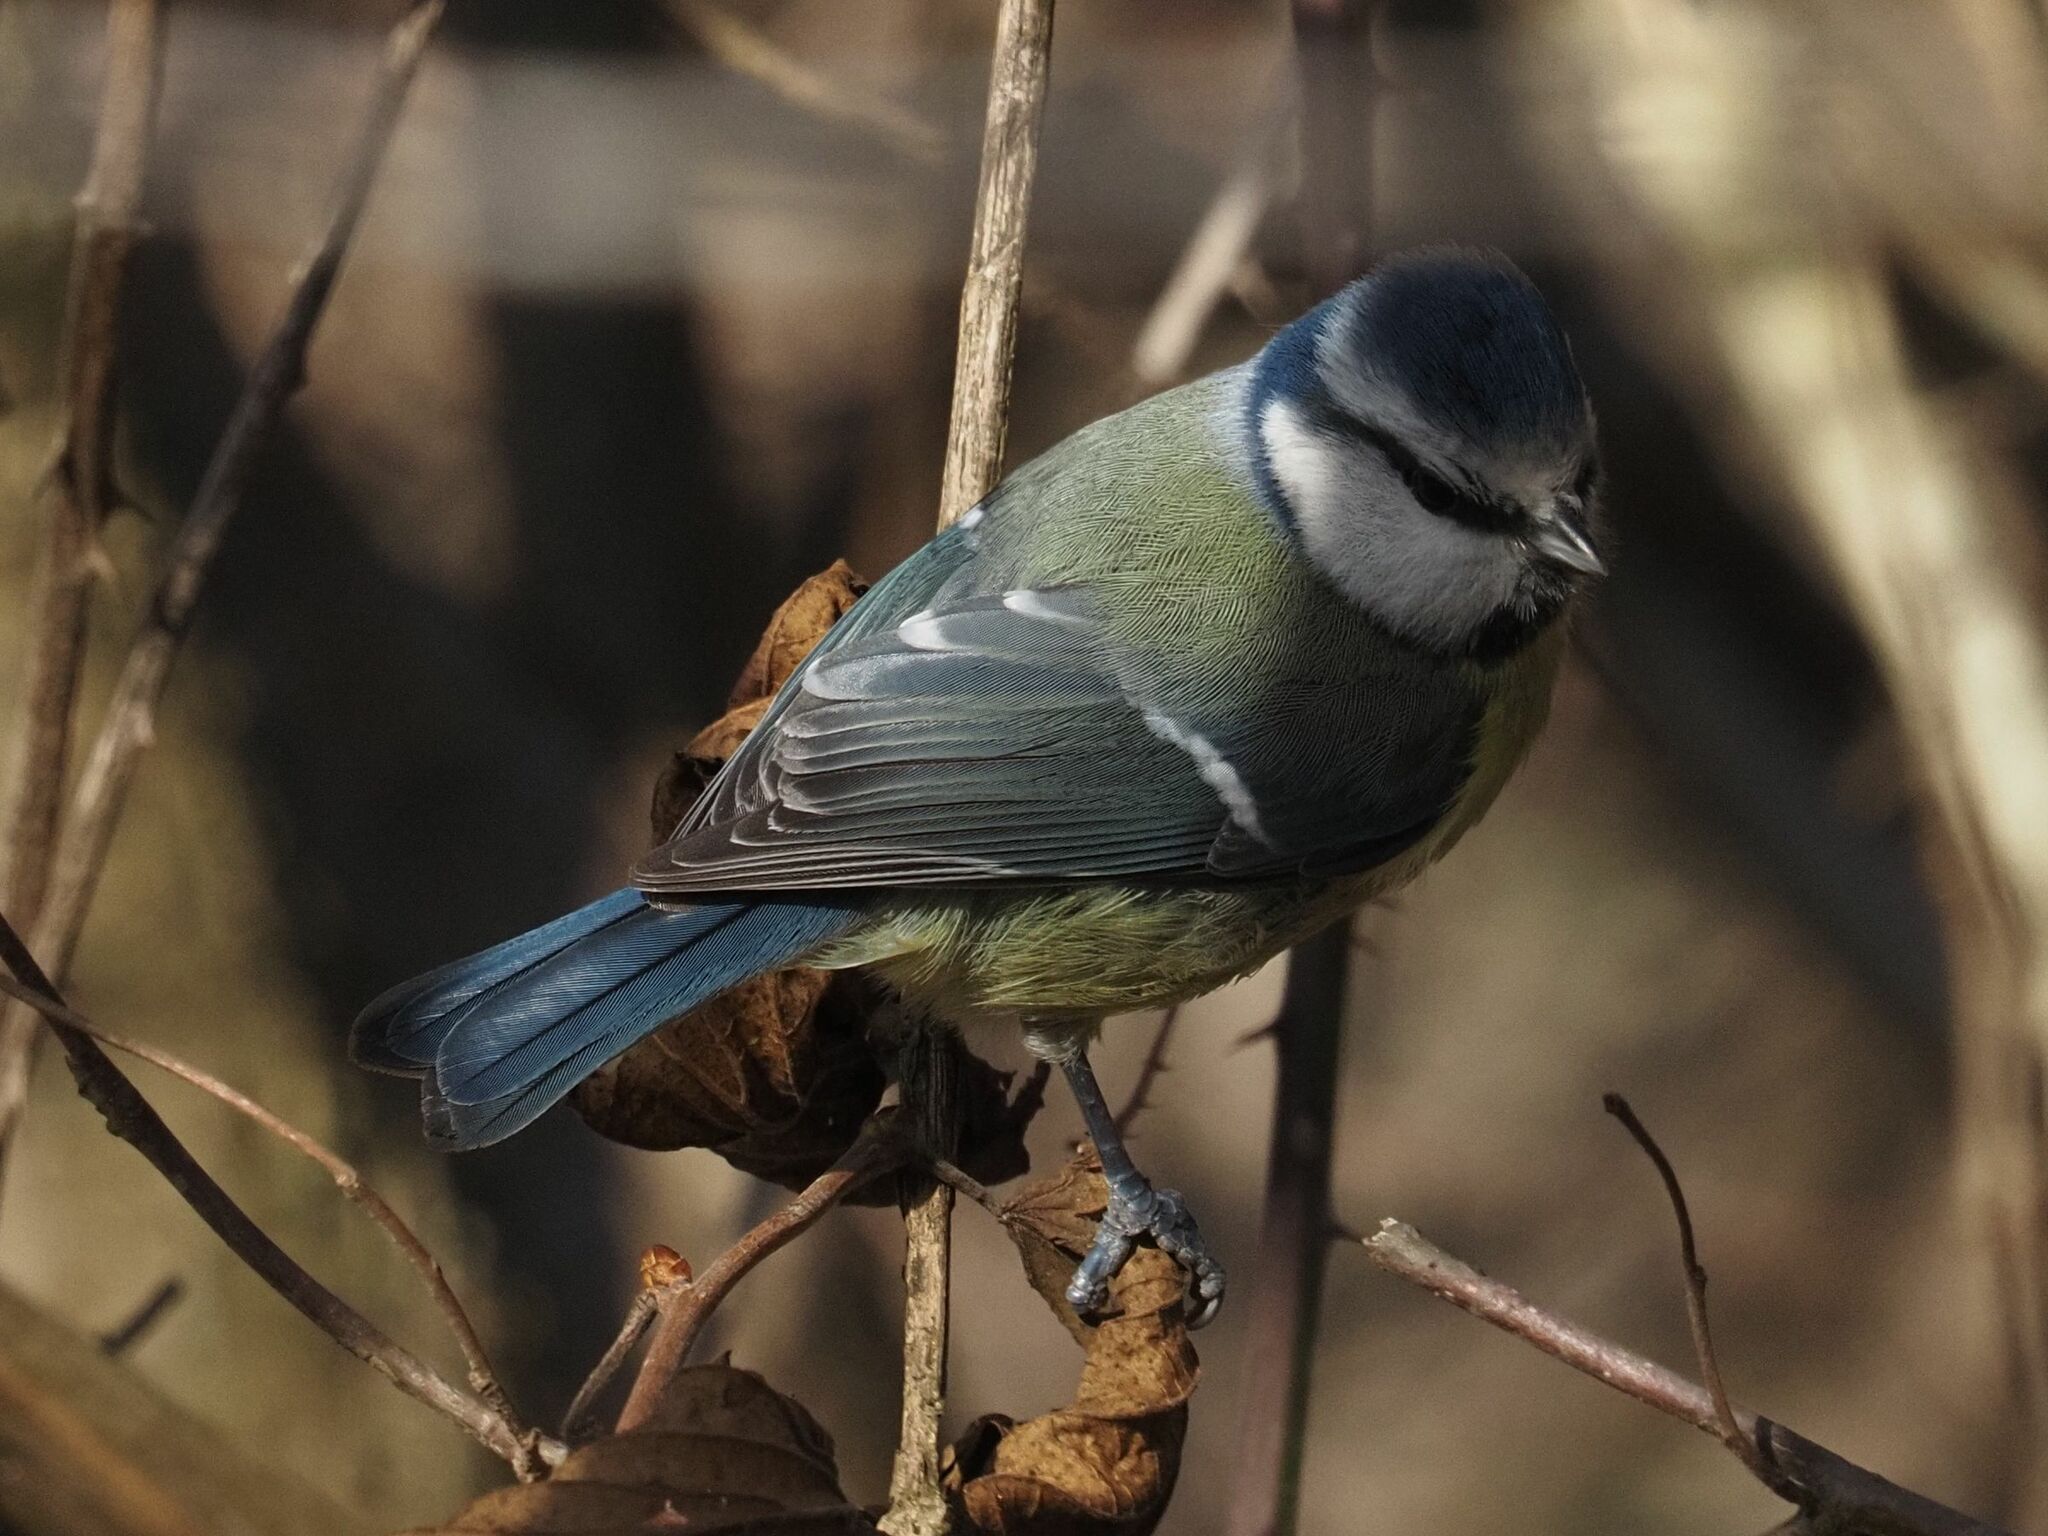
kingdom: Animalia
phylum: Chordata
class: Aves
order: Passeriformes
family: Paridae
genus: Cyanistes
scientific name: Cyanistes caeruleus
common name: Eurasian blue tit
